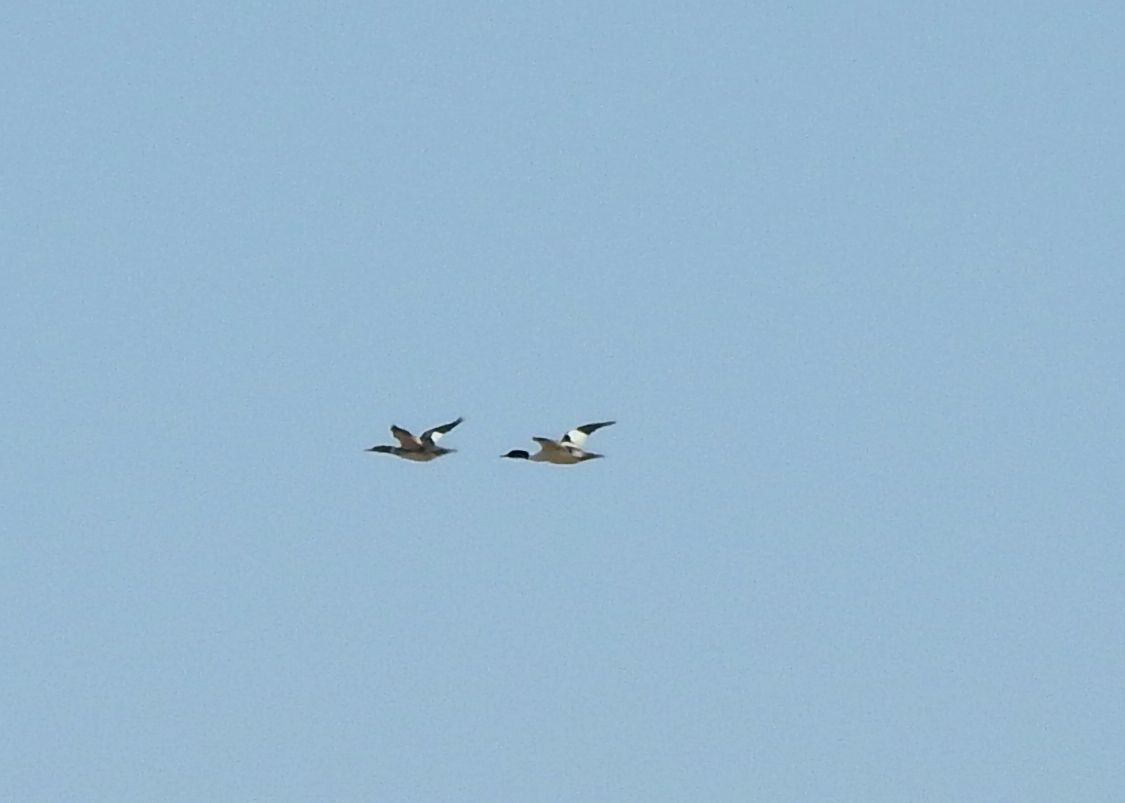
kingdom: Animalia
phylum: Chordata
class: Aves
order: Anseriformes
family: Anatidae
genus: Mergus
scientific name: Mergus merganser
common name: Common merganser
